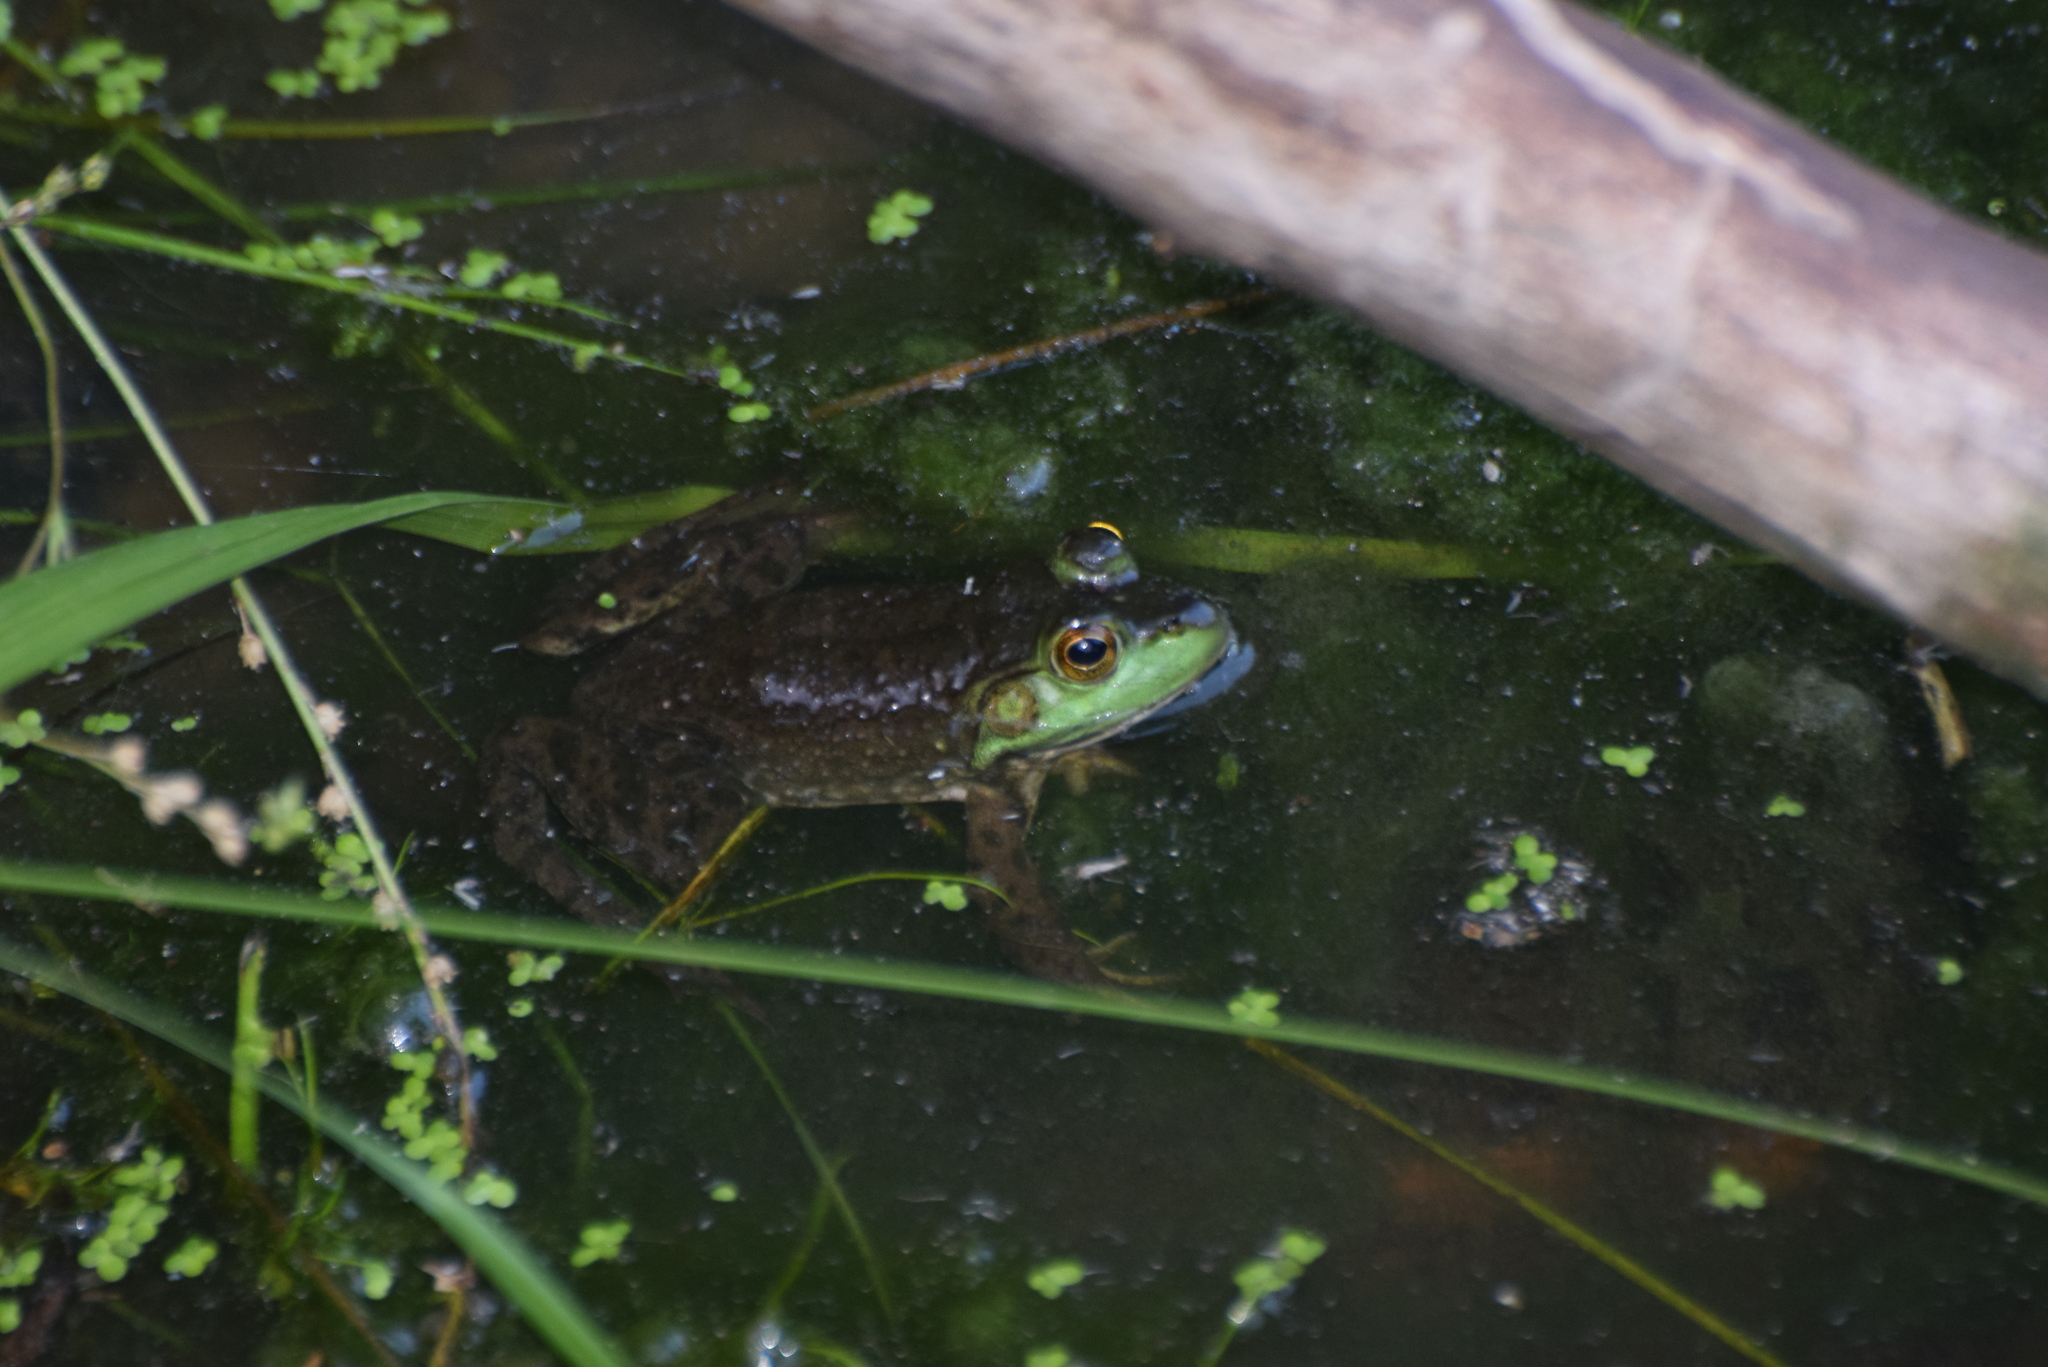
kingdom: Animalia
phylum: Chordata
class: Amphibia
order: Anura
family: Ranidae
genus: Lithobates
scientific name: Lithobates catesbeianus
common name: American bullfrog
